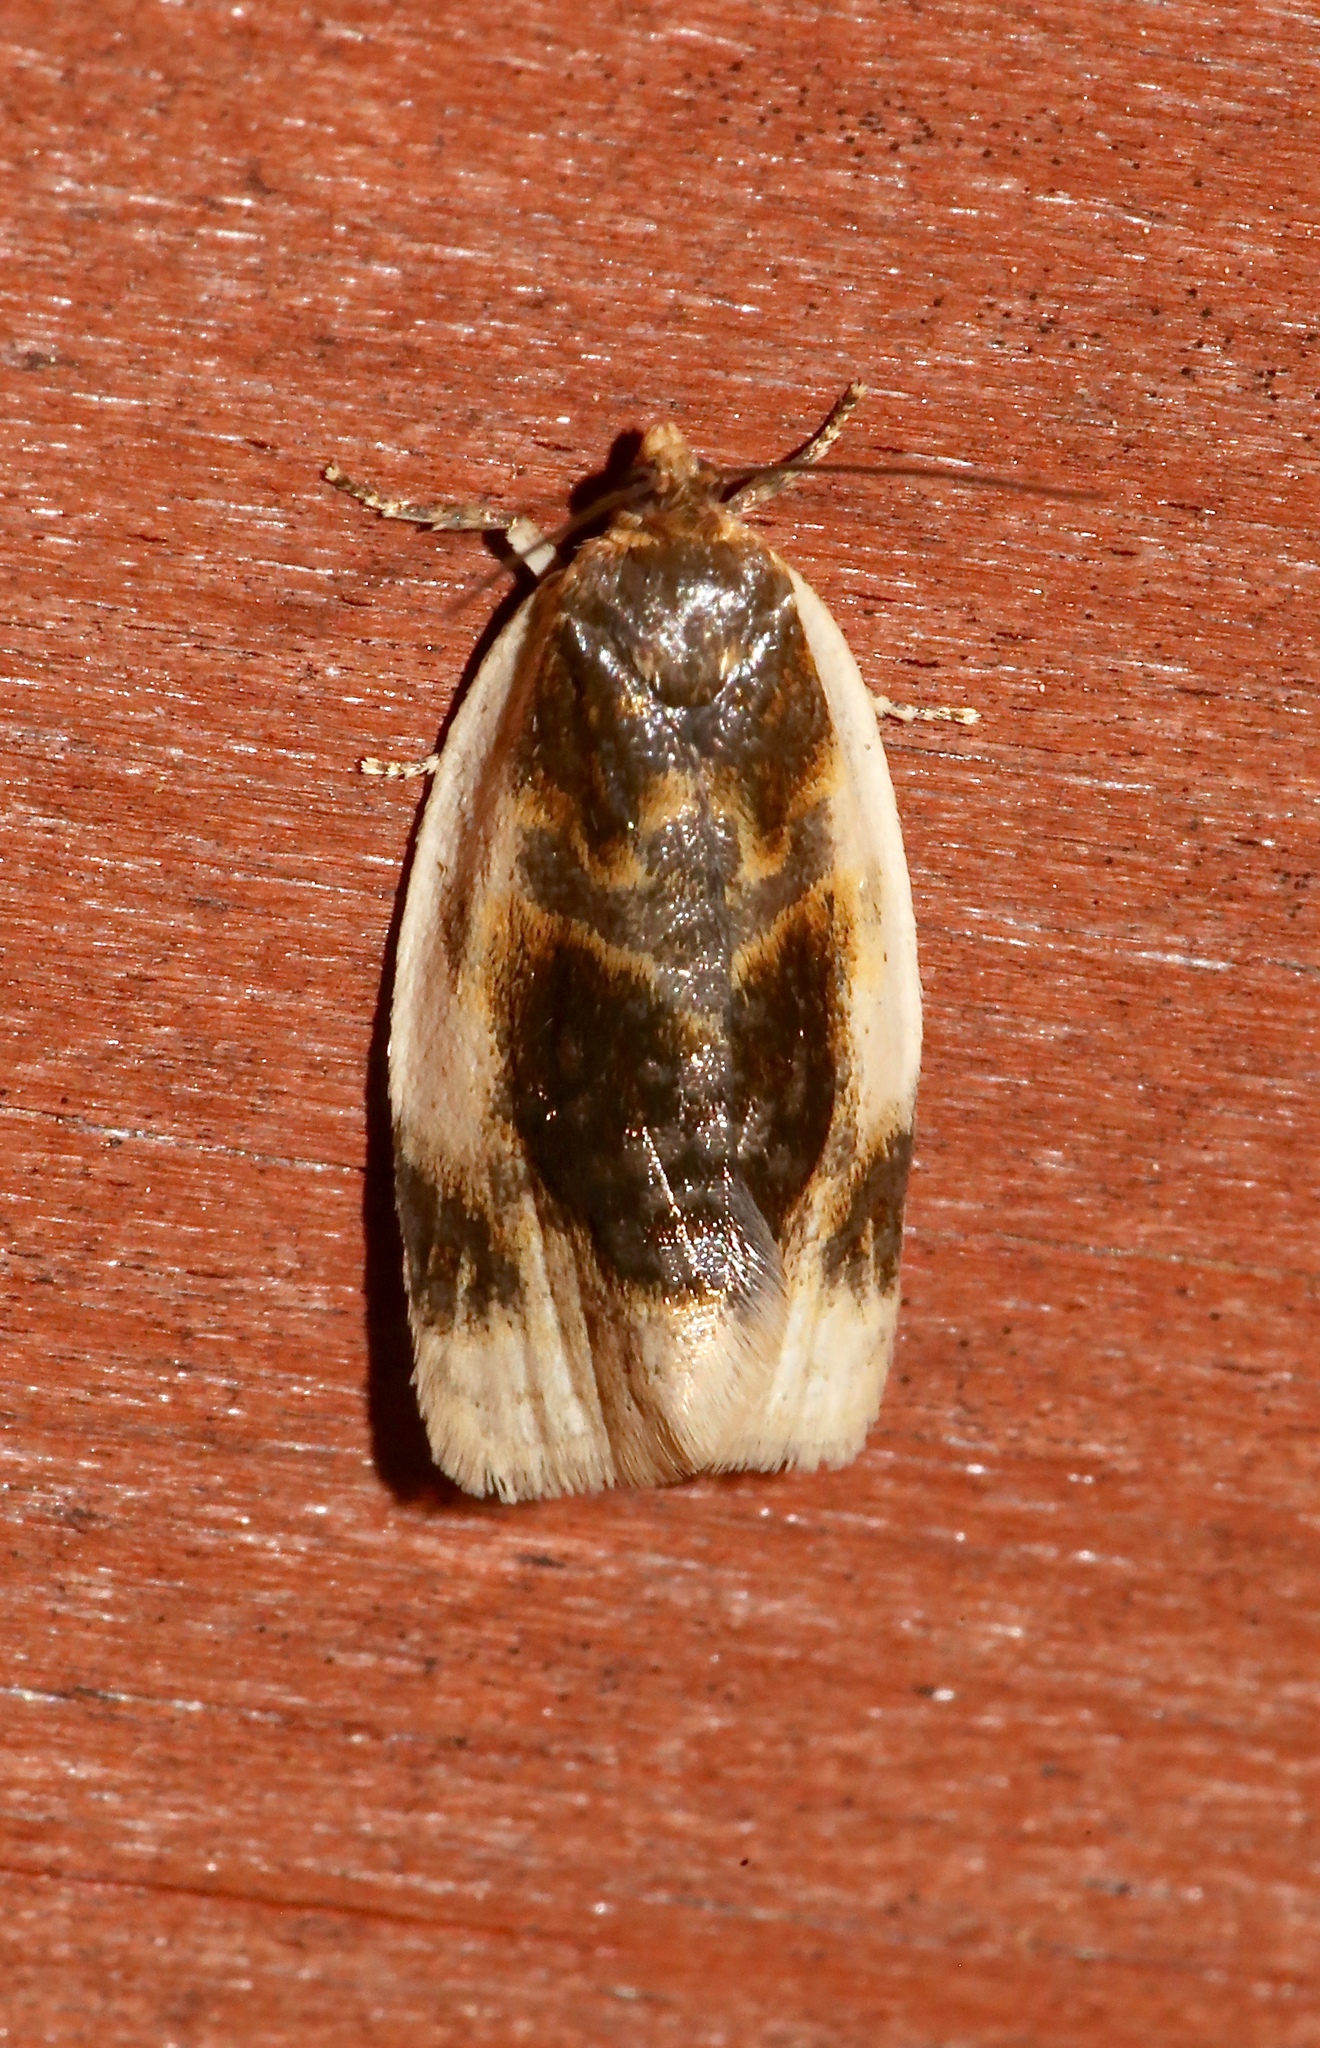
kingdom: Animalia
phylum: Arthropoda
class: Insecta
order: Lepidoptera
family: Tortricidae
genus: Clepsis
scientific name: Clepsis melaleucanus
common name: American apple tortrix
